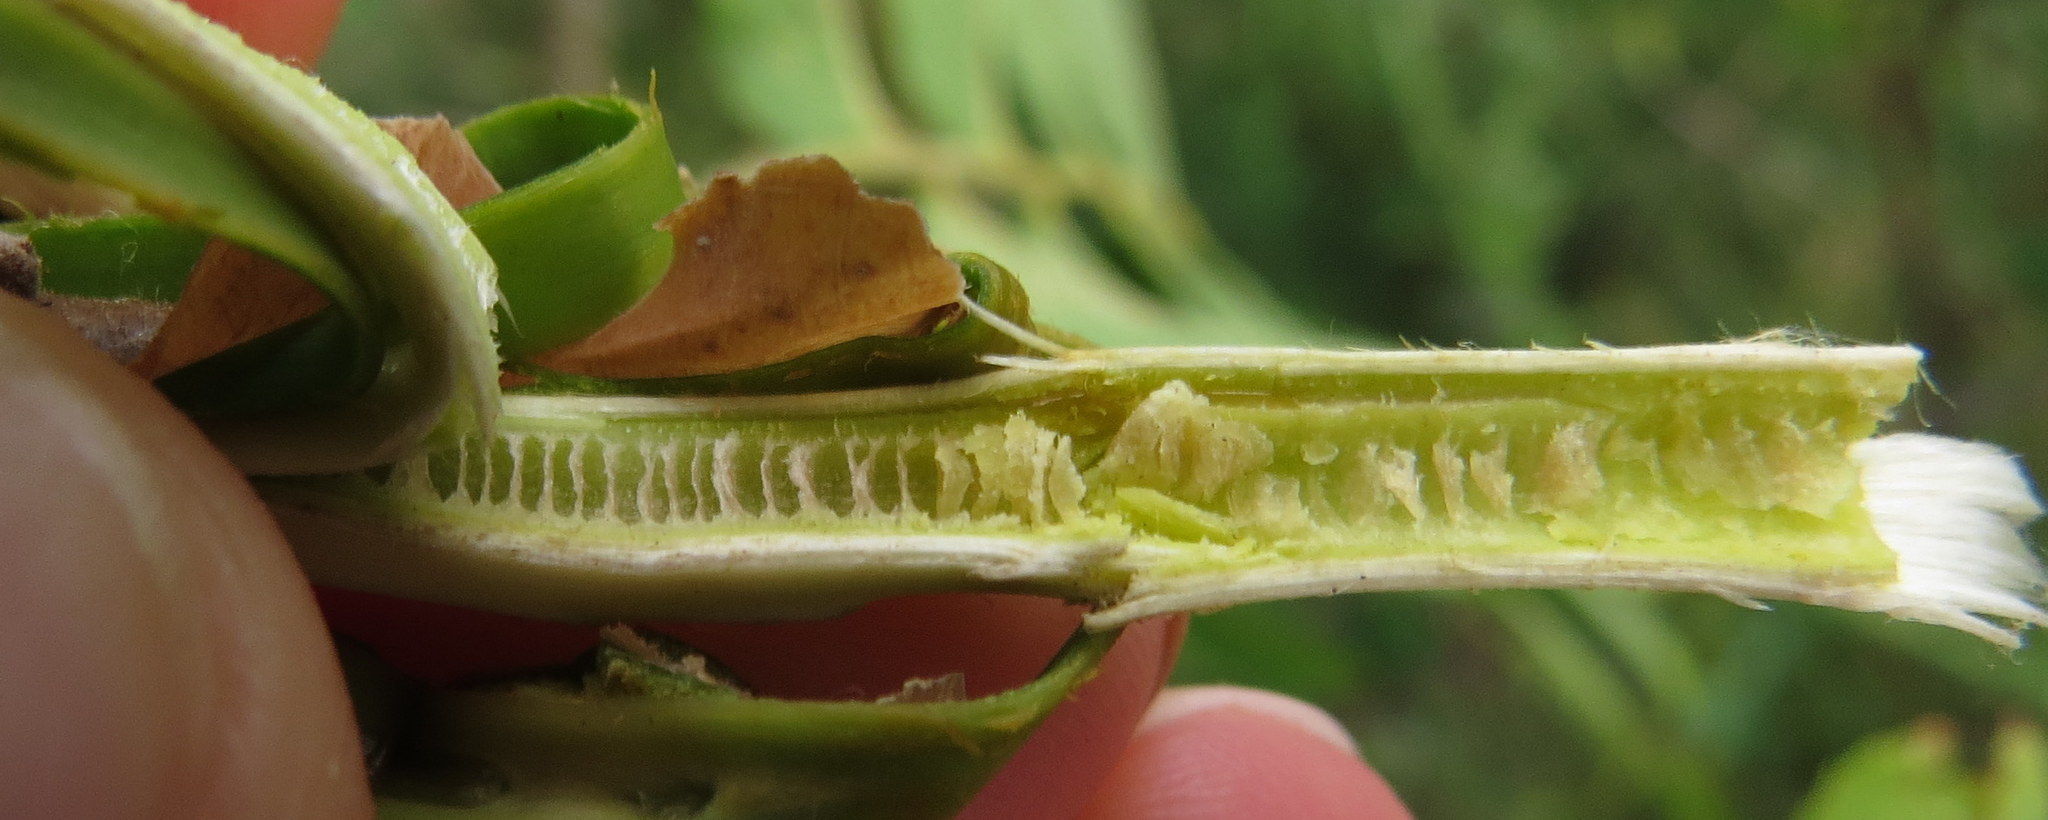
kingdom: Plantae
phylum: Tracheophyta
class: Magnoliopsida
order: Fagales
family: Juglandaceae
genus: Juglans
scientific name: Juglans nigra
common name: Black walnut
